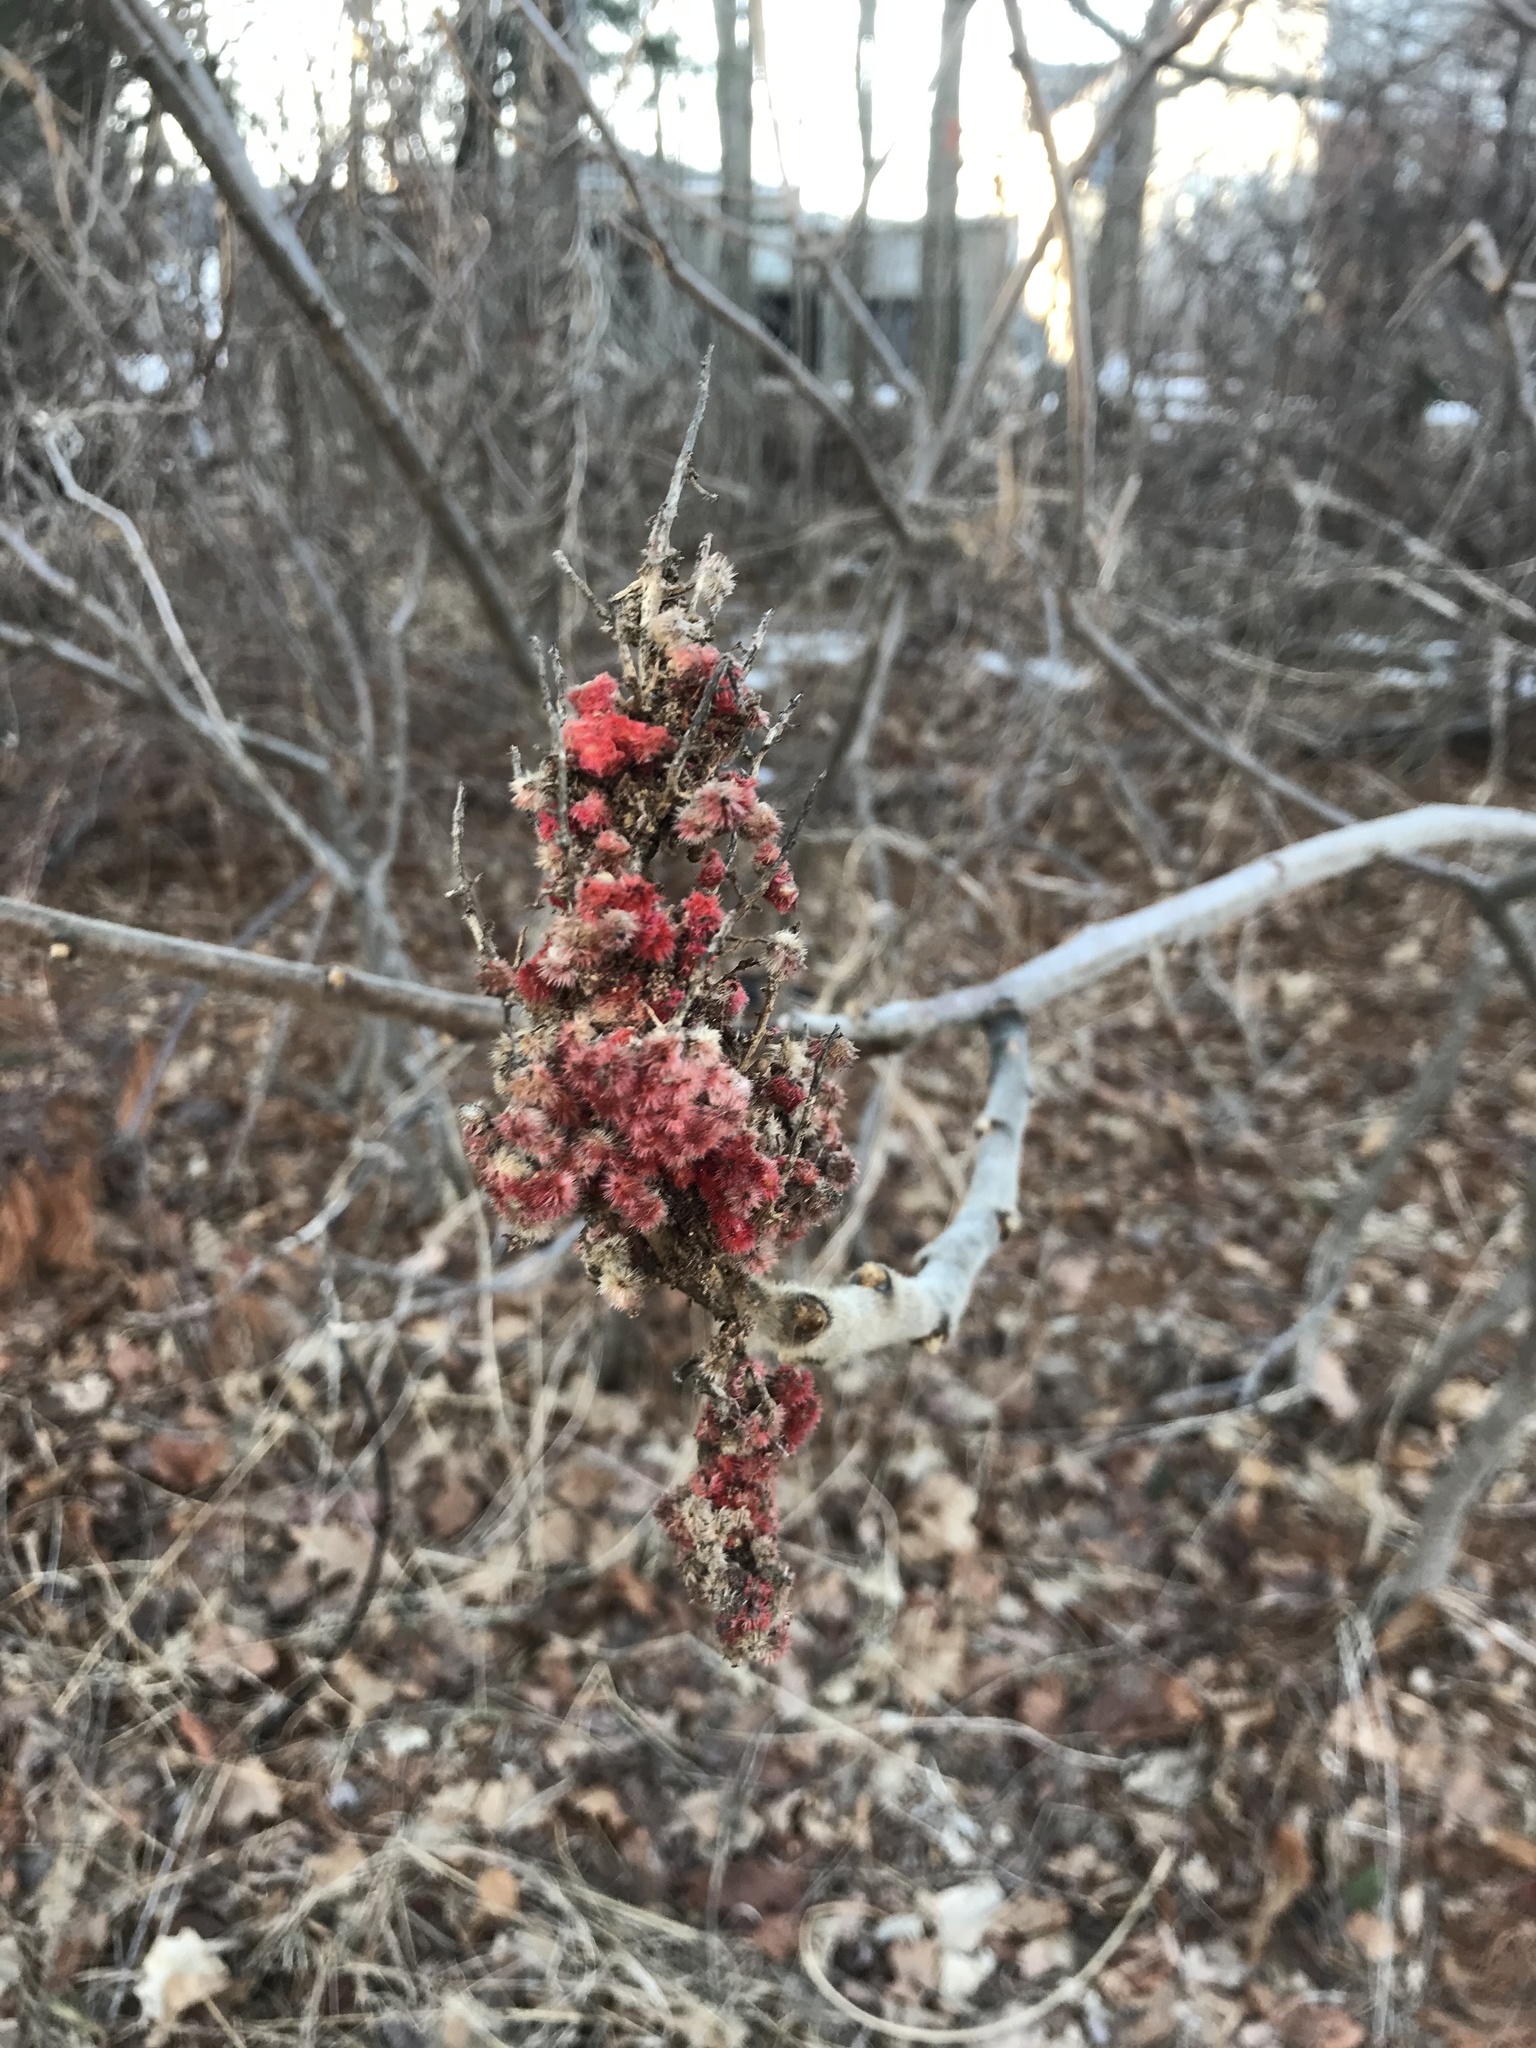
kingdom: Plantae
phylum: Tracheophyta
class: Magnoliopsida
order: Sapindales
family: Anacardiaceae
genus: Rhus
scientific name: Rhus typhina
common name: Staghorn sumac
